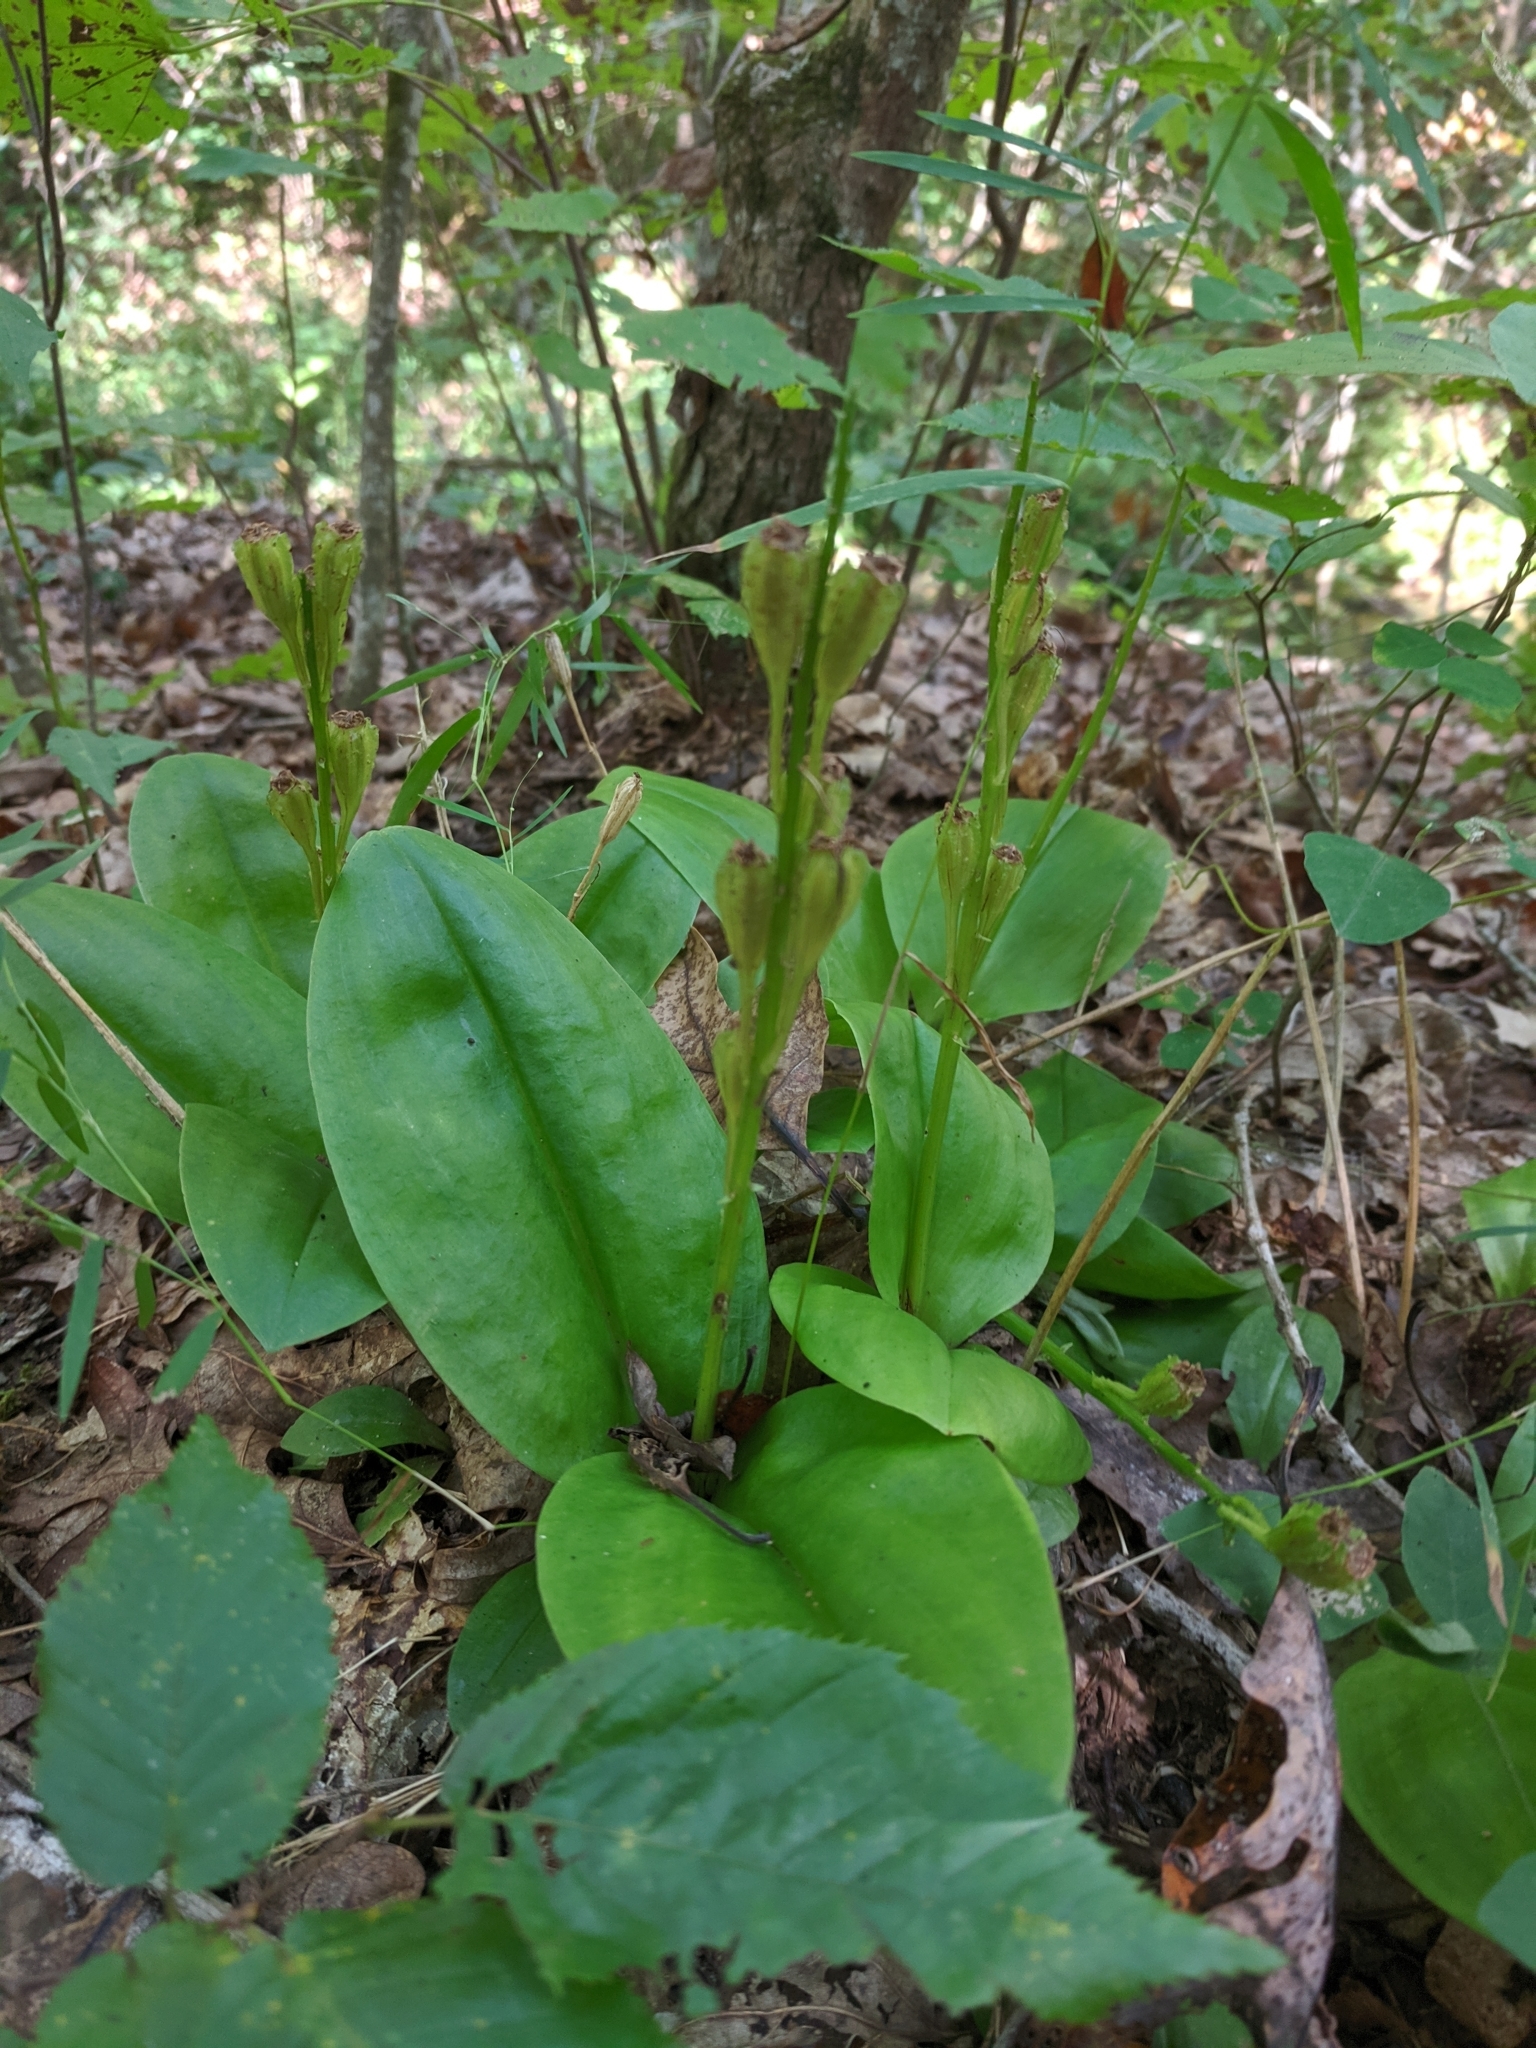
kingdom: Plantae
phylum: Tracheophyta
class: Liliopsida
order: Asparagales
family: Orchidaceae
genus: Liparis
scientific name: Liparis liliifolia
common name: Brown wide-lip orchid
